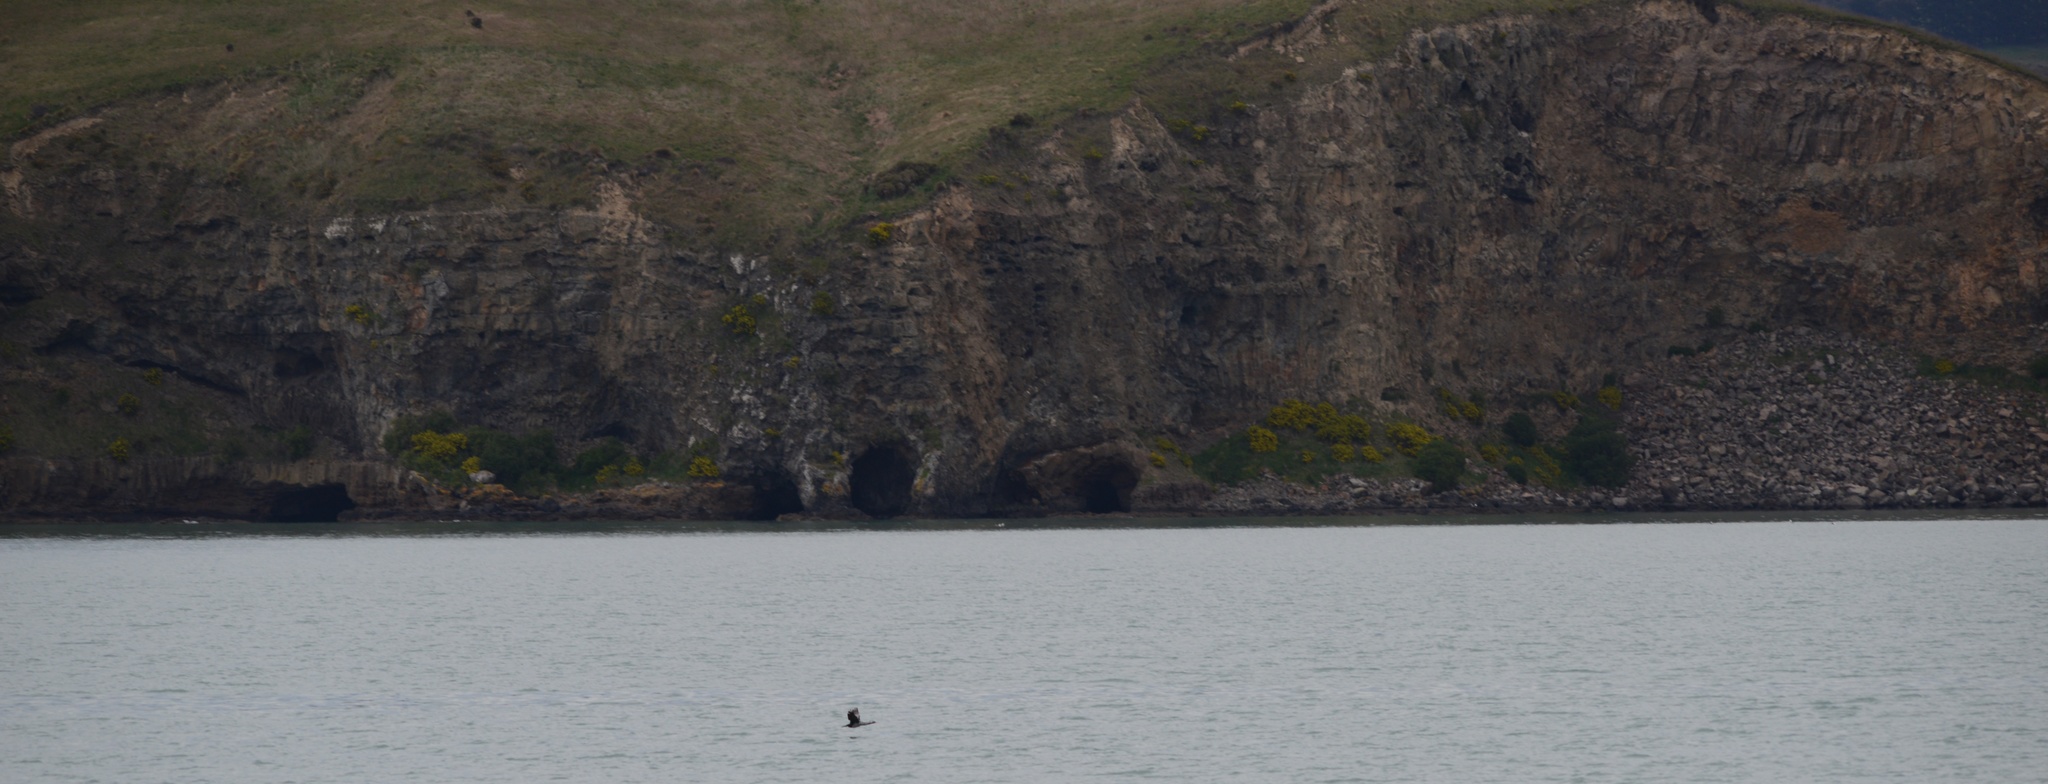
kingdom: Animalia
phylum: Chordata
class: Aves
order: Suliformes
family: Phalacrocoracidae
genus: Phalacrocorax
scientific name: Phalacrocorax punctatus
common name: Spotted shag
